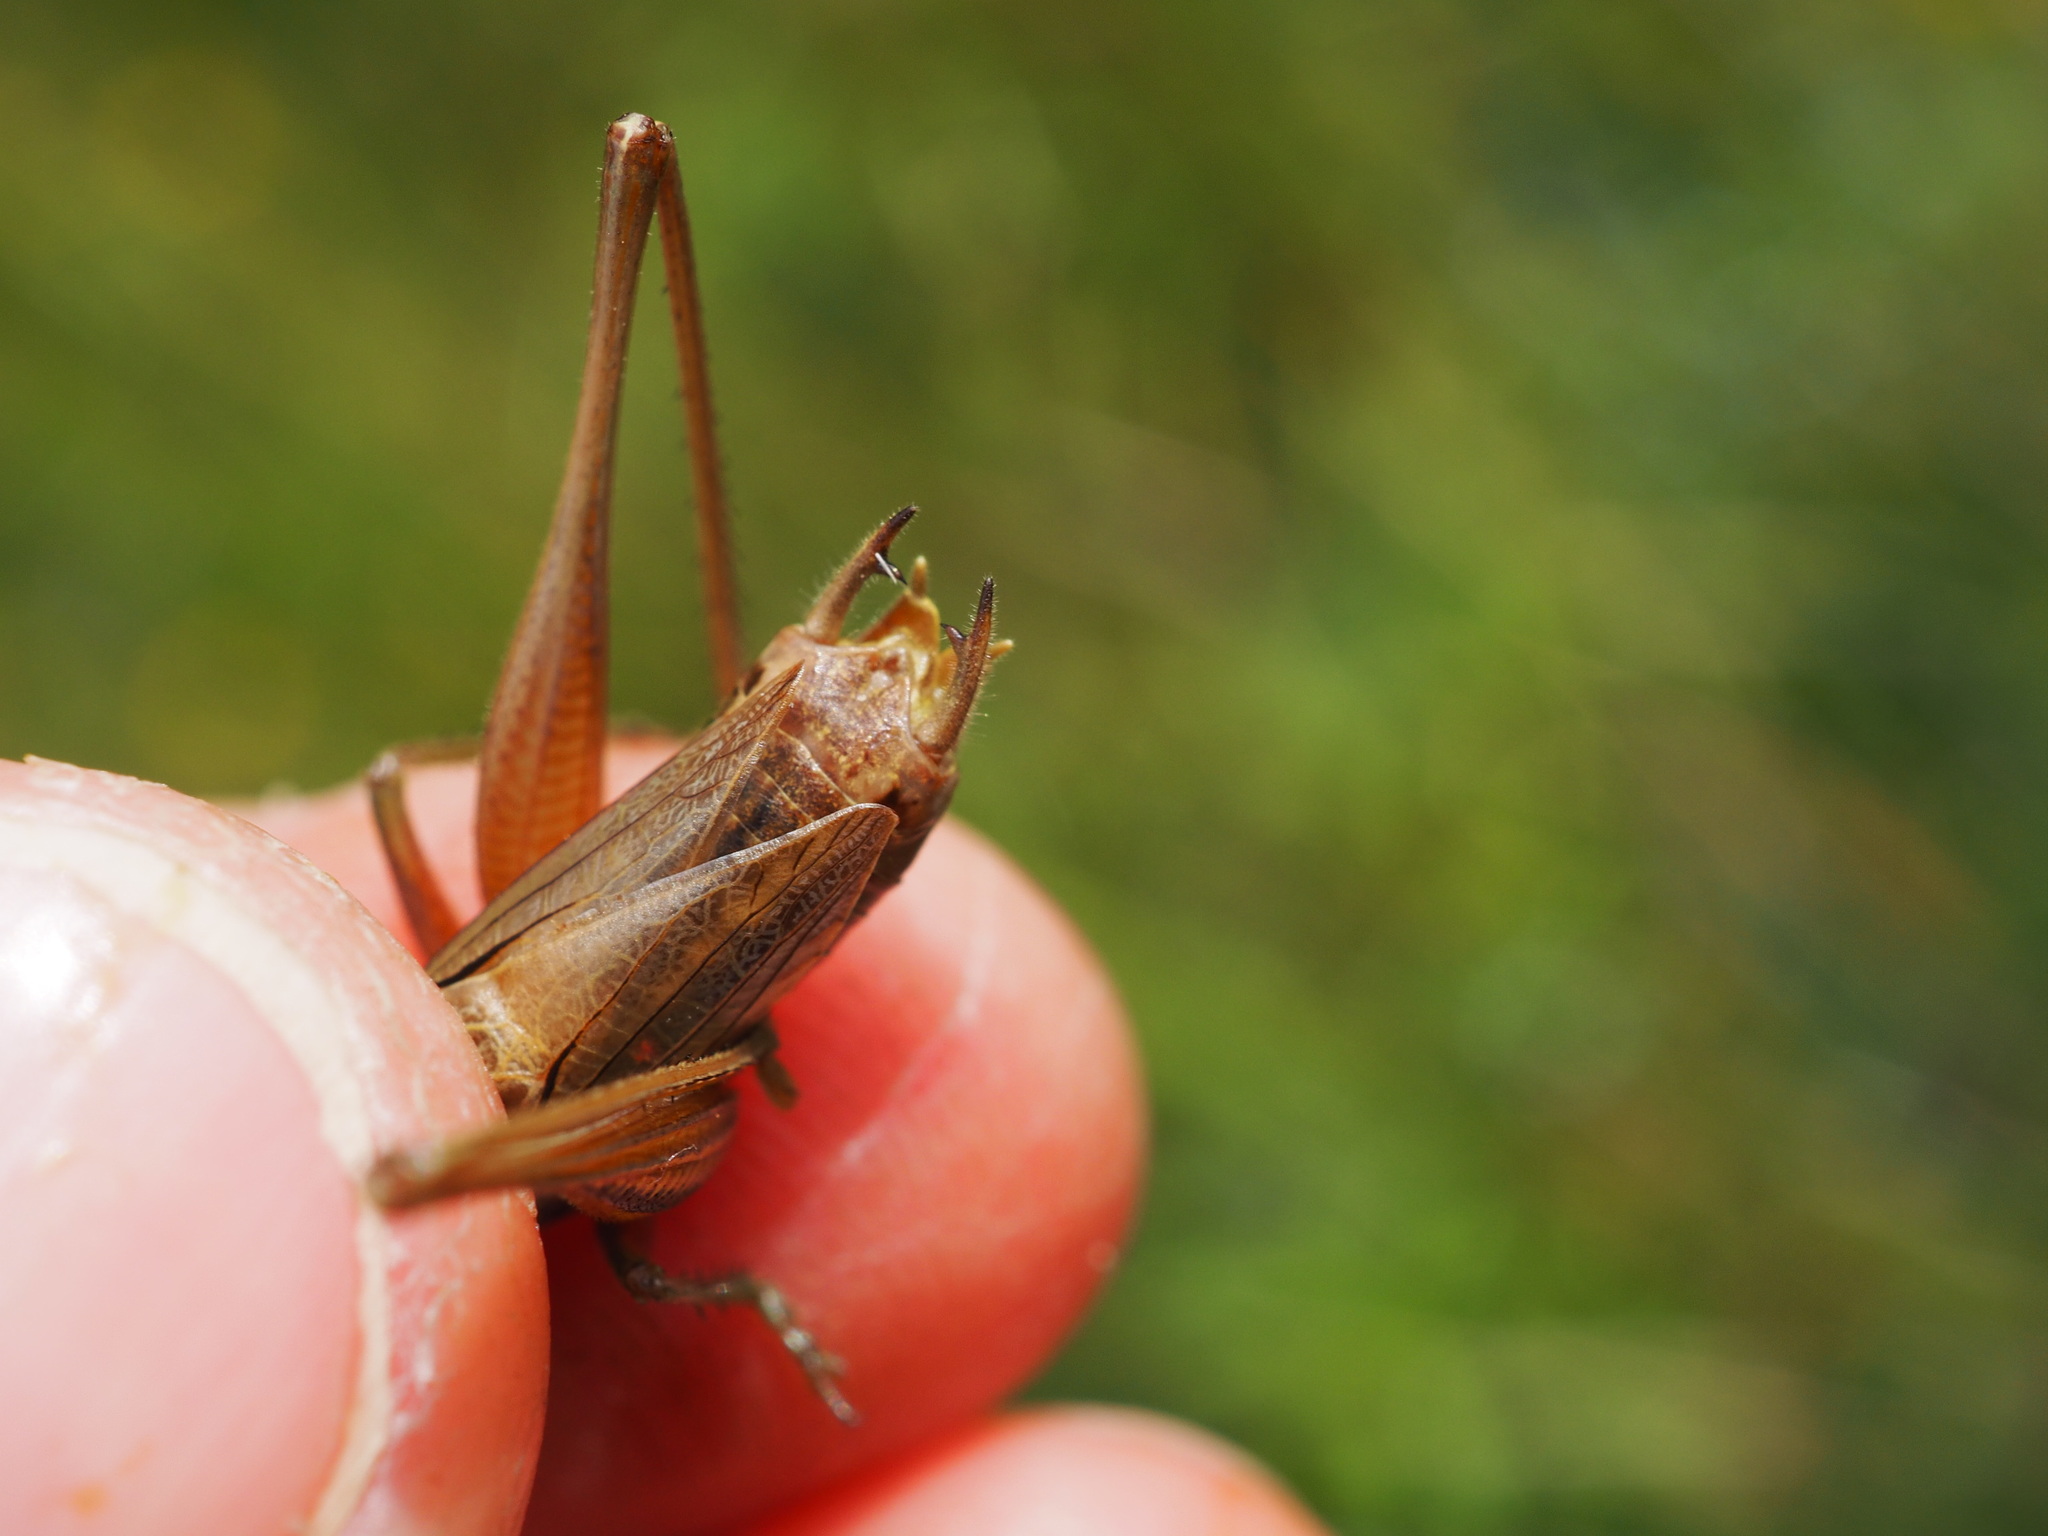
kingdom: Animalia
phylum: Arthropoda
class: Insecta
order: Orthoptera
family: Tettigoniidae
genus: Roeseliana
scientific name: Roeseliana roeselii
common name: Roesel's bush cricket
